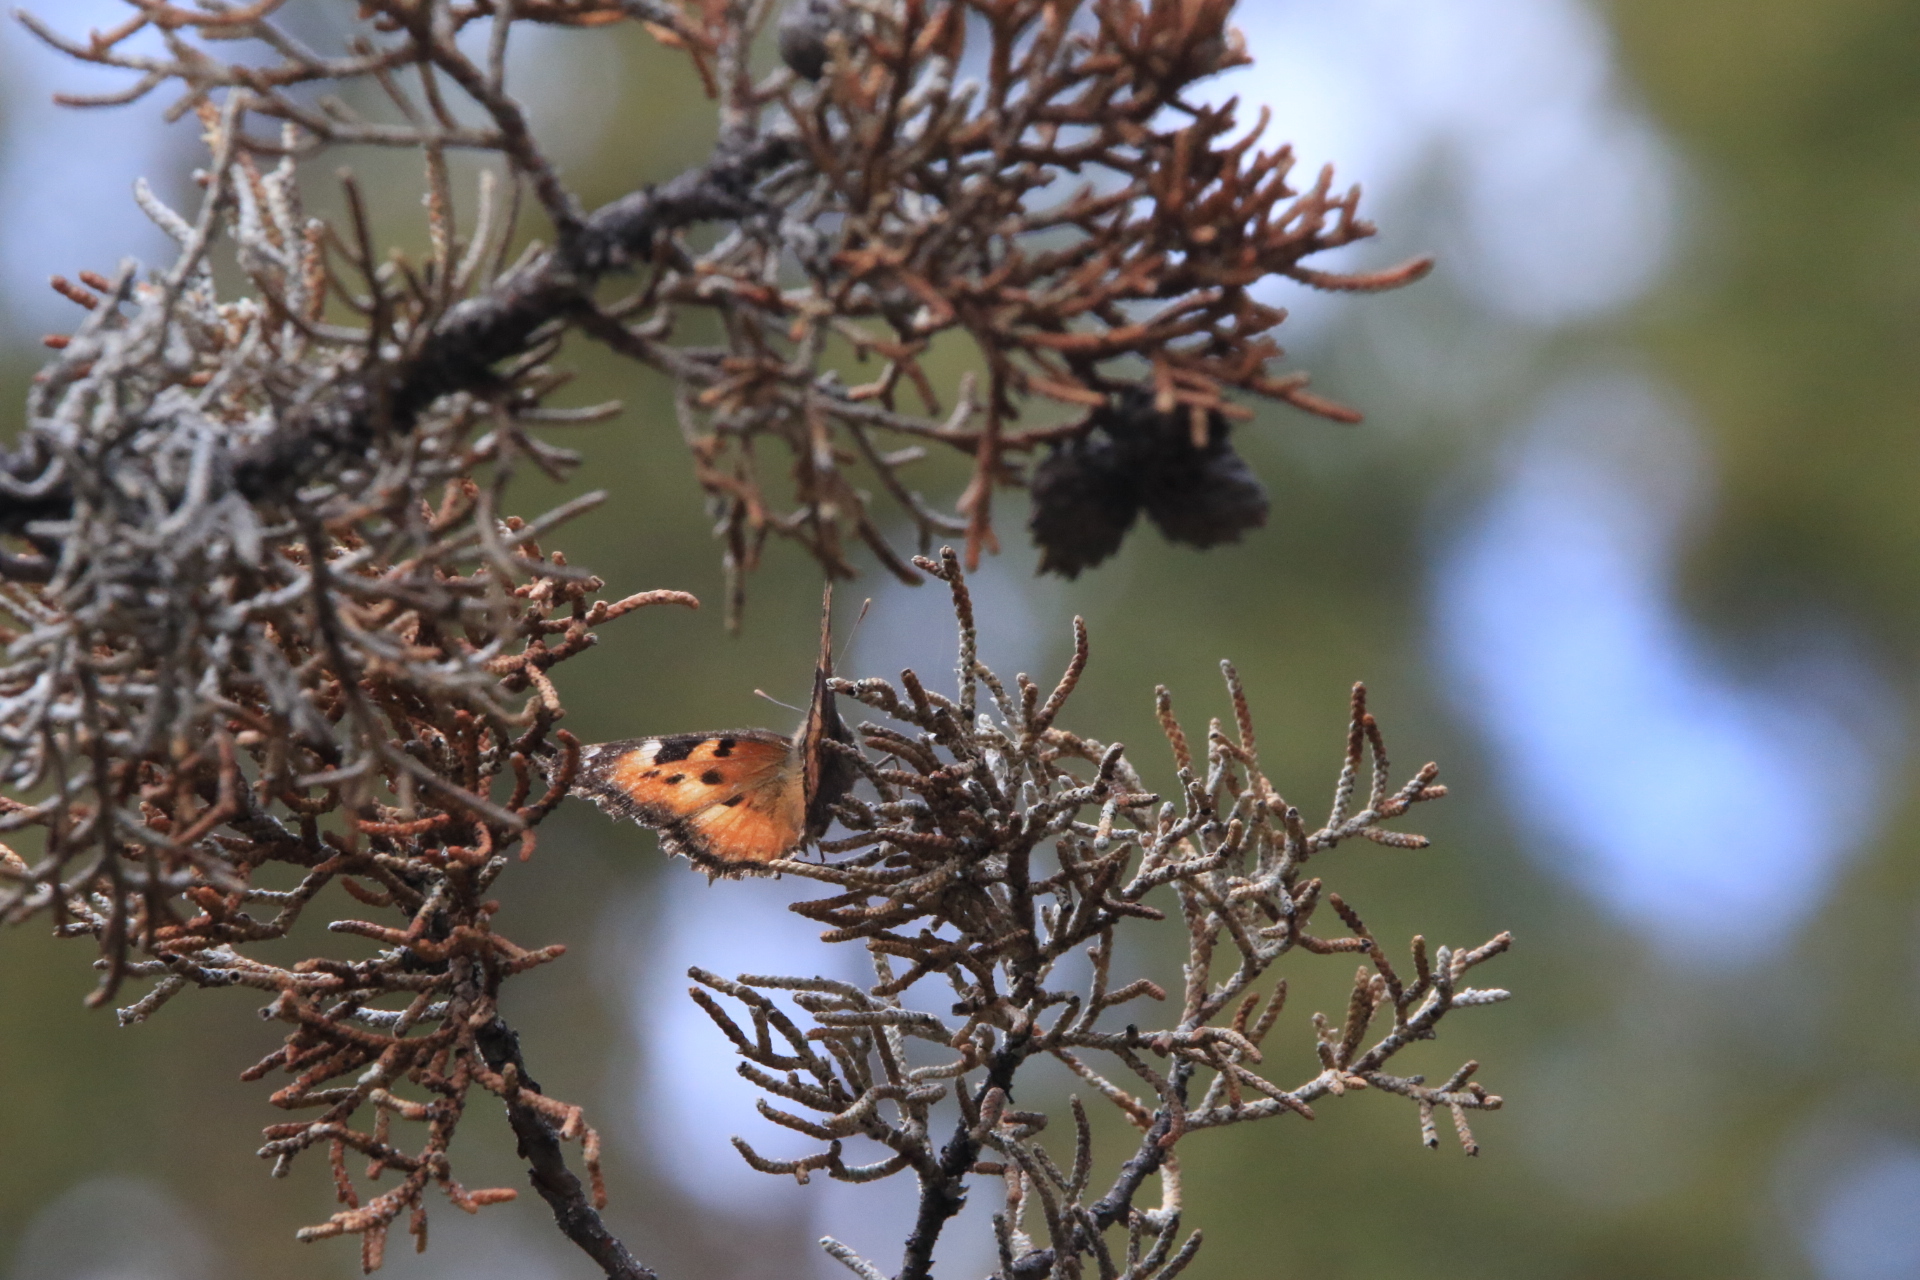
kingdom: Animalia
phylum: Arthropoda
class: Insecta
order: Lepidoptera
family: Nymphalidae
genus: Nymphalis
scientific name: Nymphalis californica
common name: California tortoiseshell
